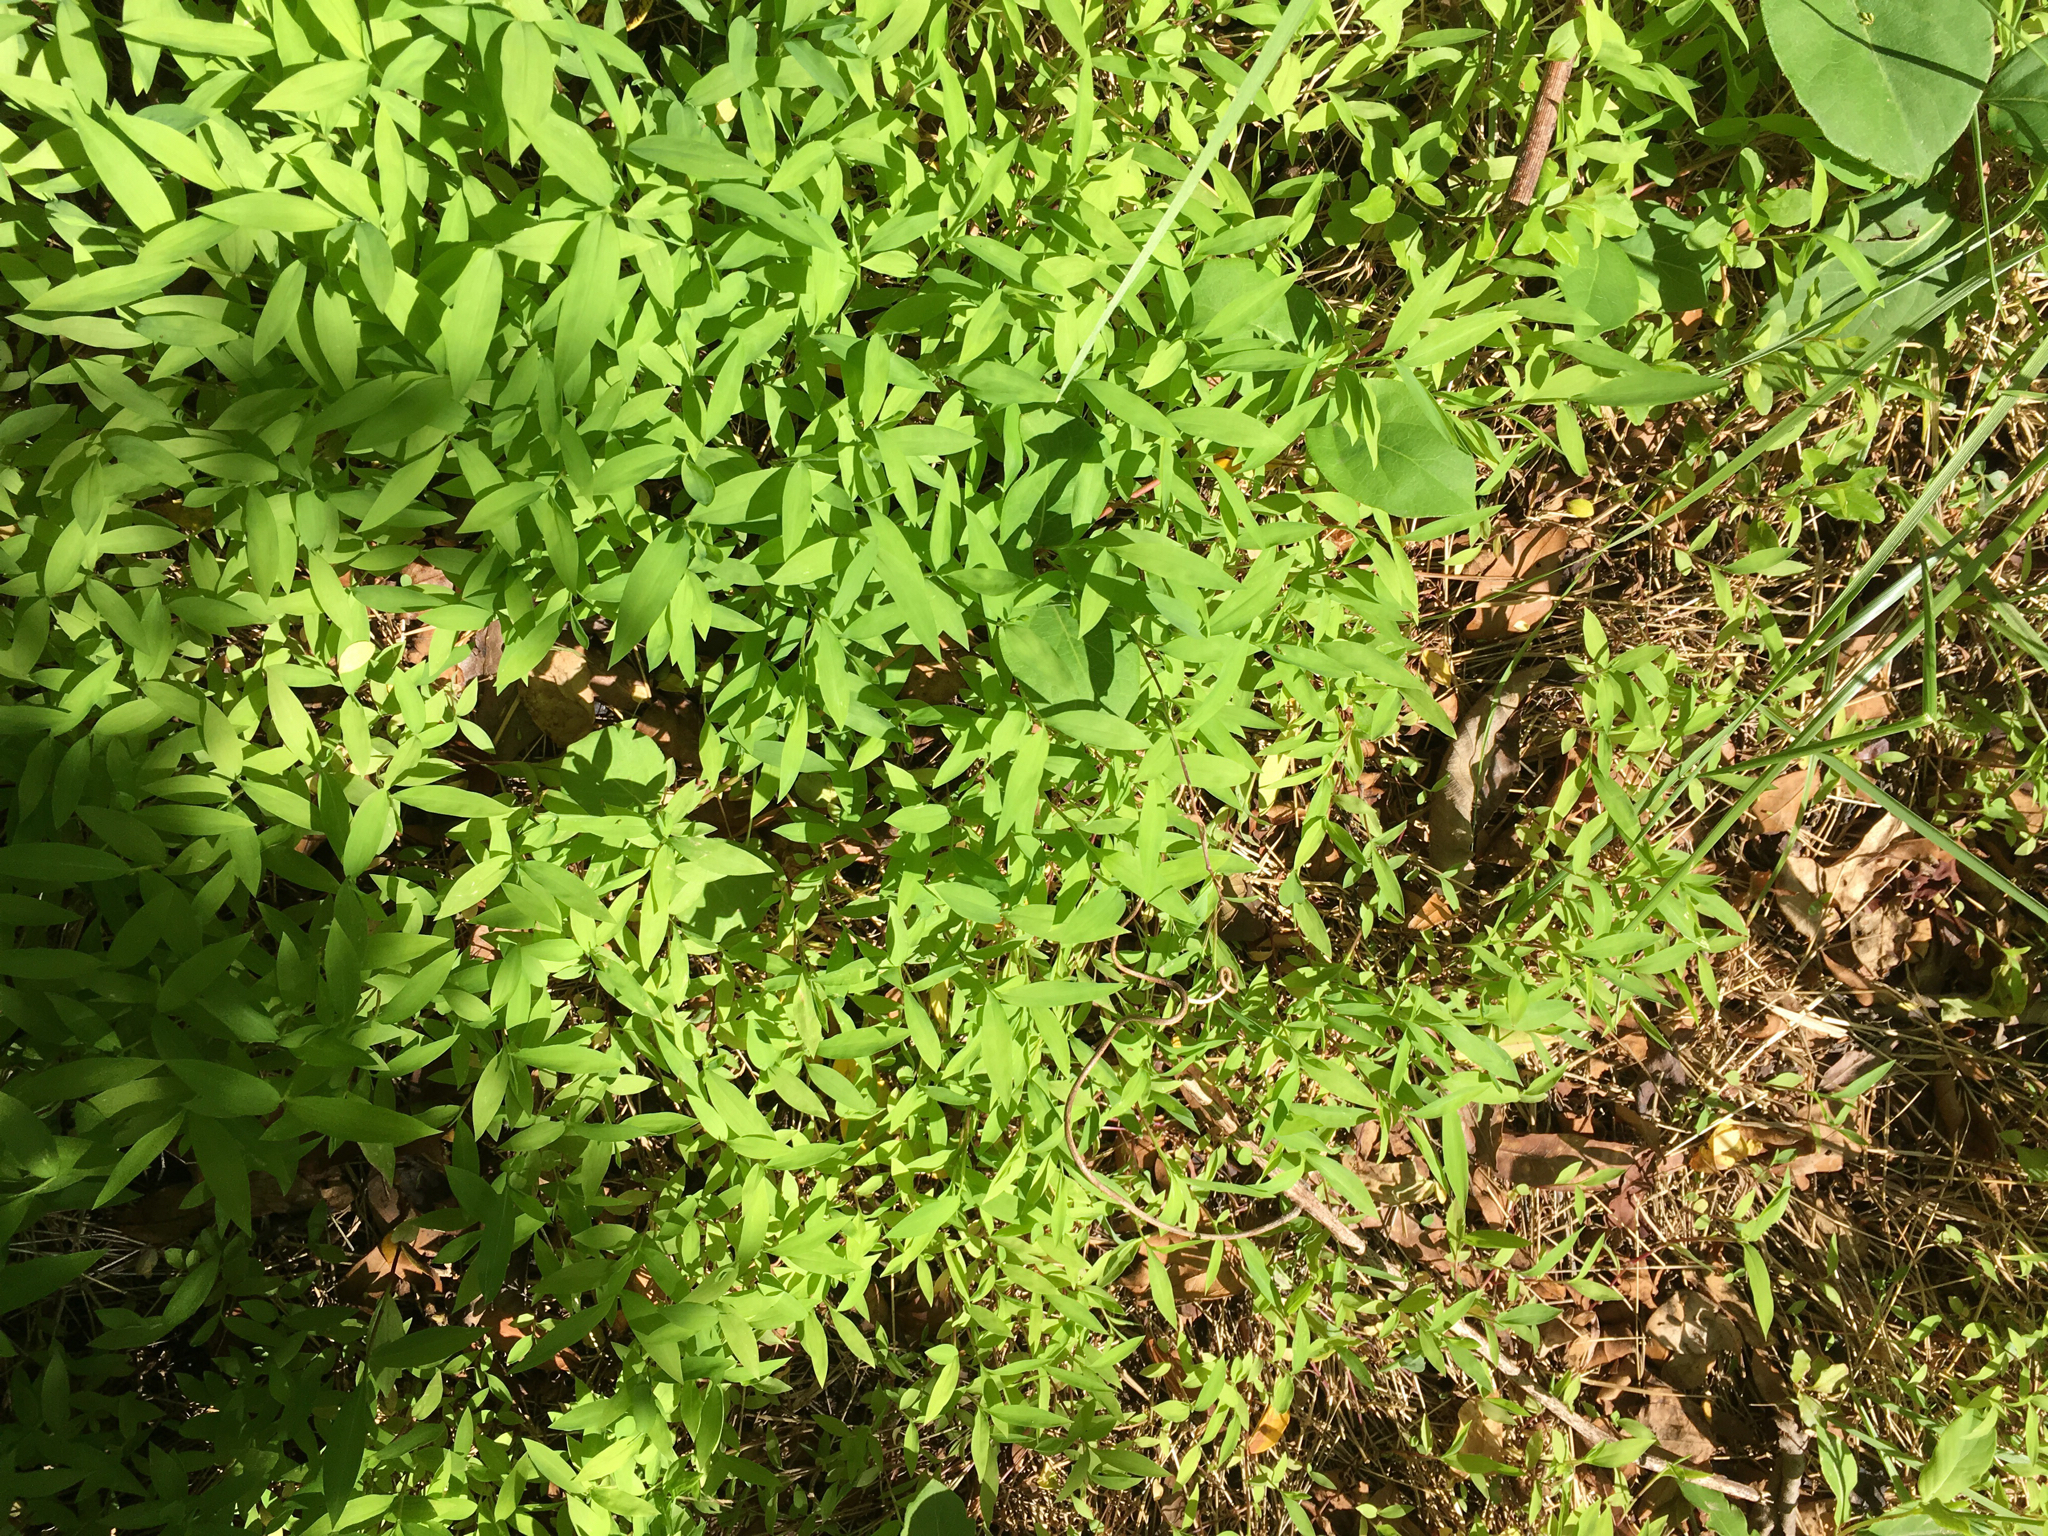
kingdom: Plantae
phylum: Tracheophyta
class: Liliopsida
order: Poales
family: Poaceae
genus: Microstegium
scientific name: Microstegium vimineum
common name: Japanese stiltgrass
